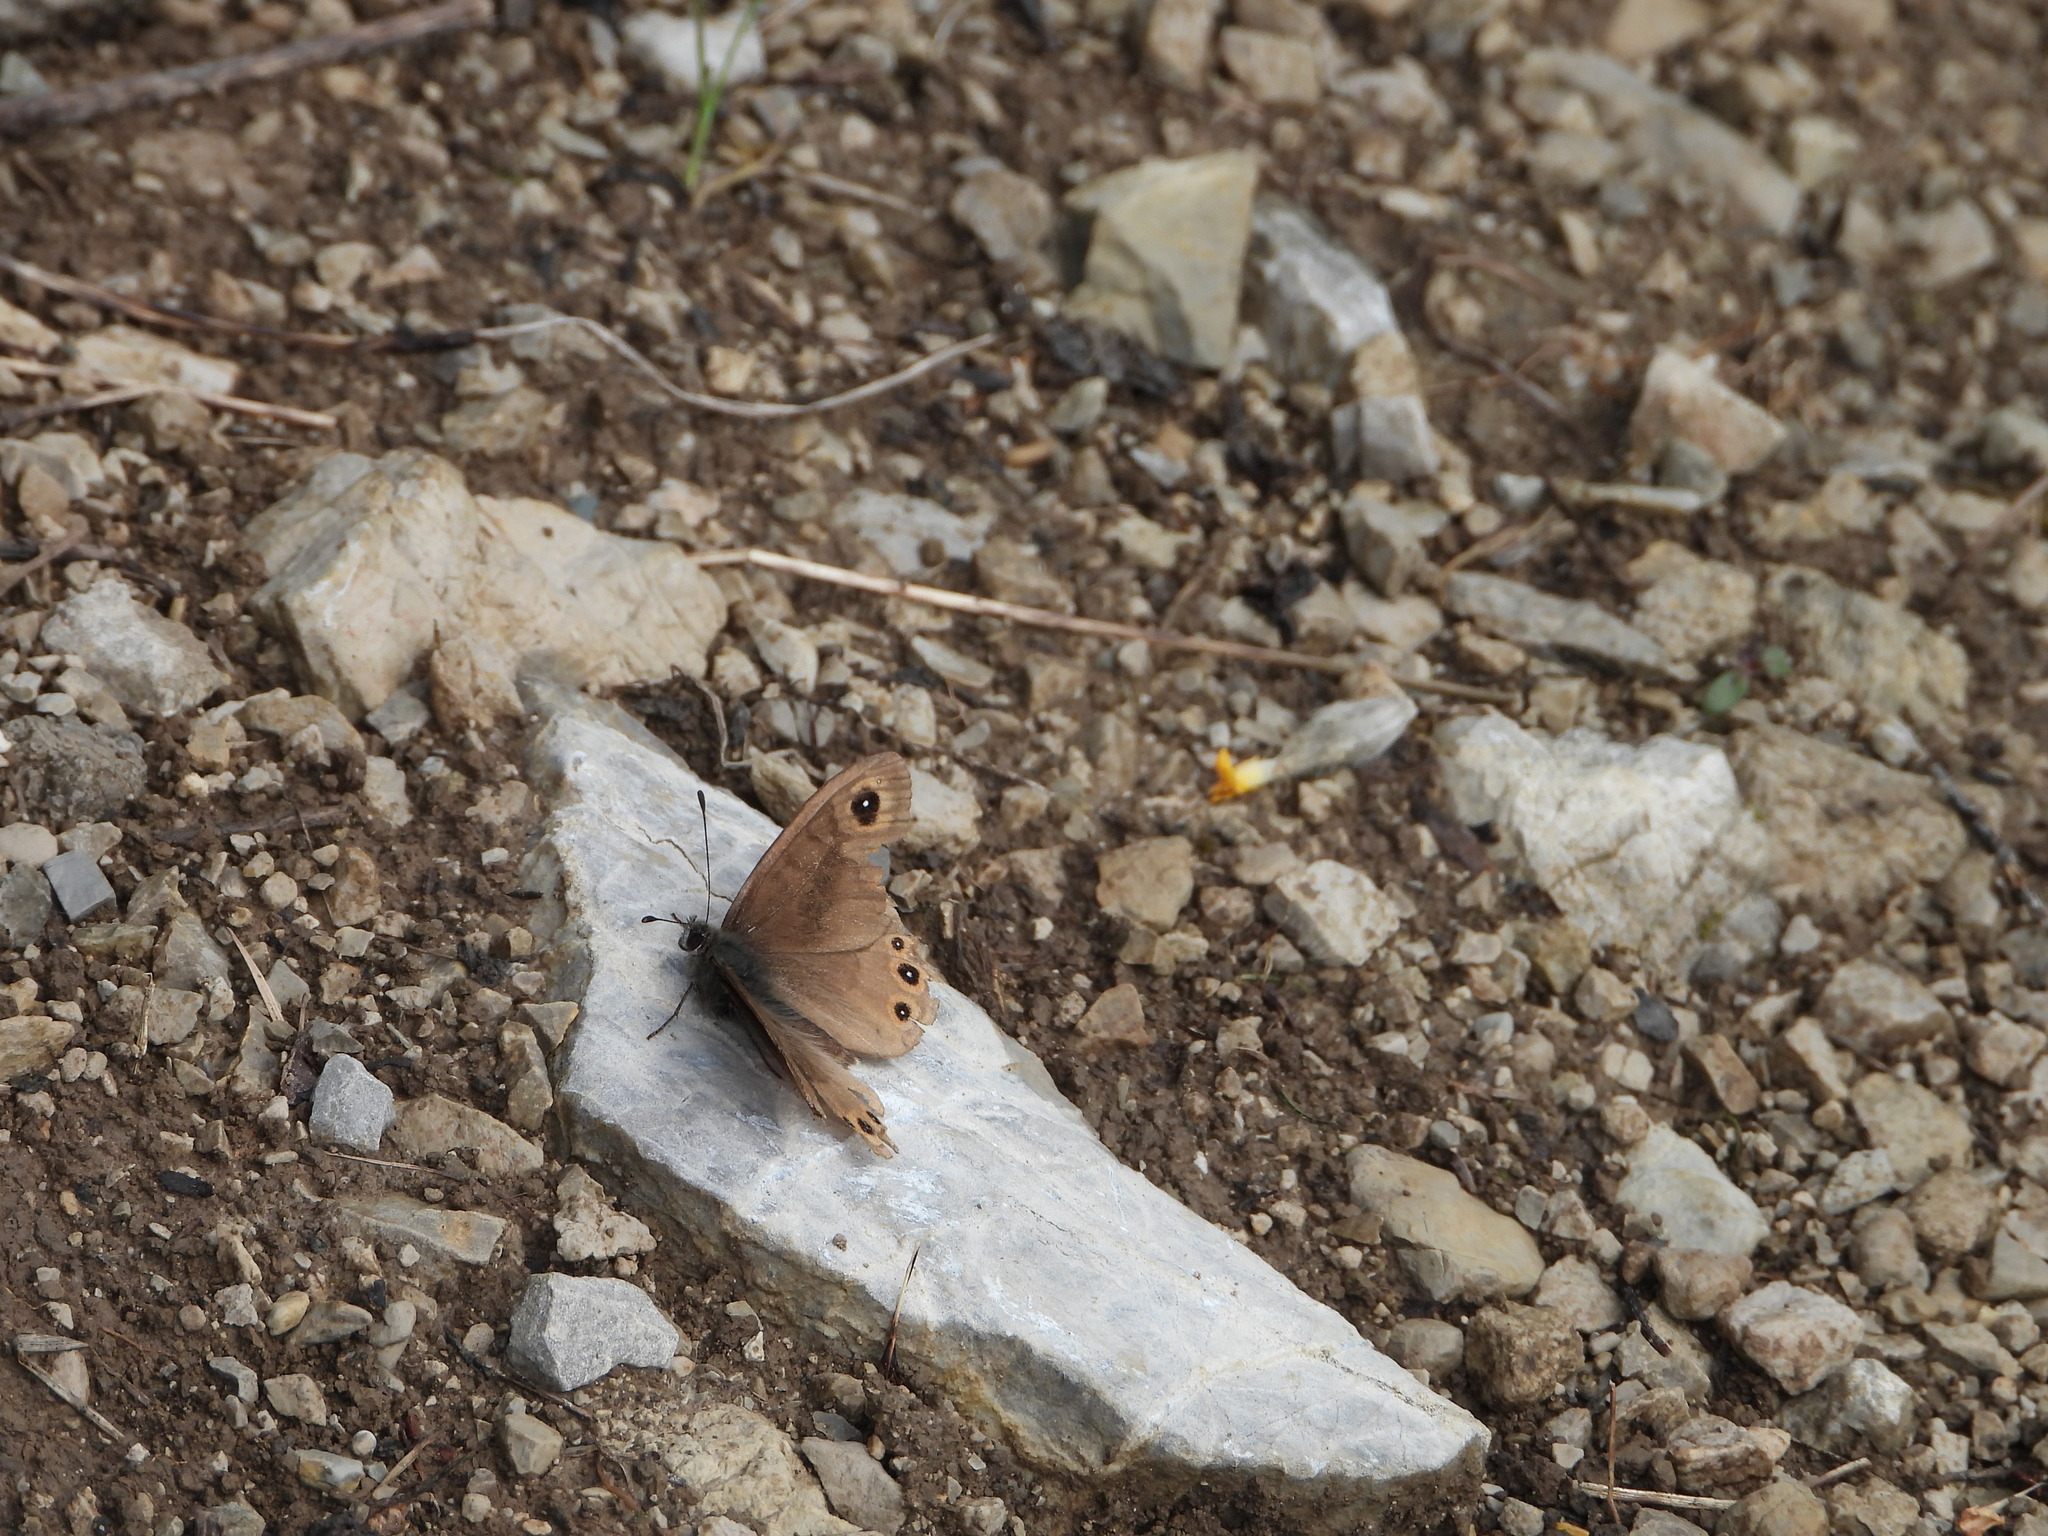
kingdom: Animalia
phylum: Arthropoda
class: Insecta
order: Lepidoptera
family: Nymphalidae
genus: Pararge
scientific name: Pararge petropolitana
